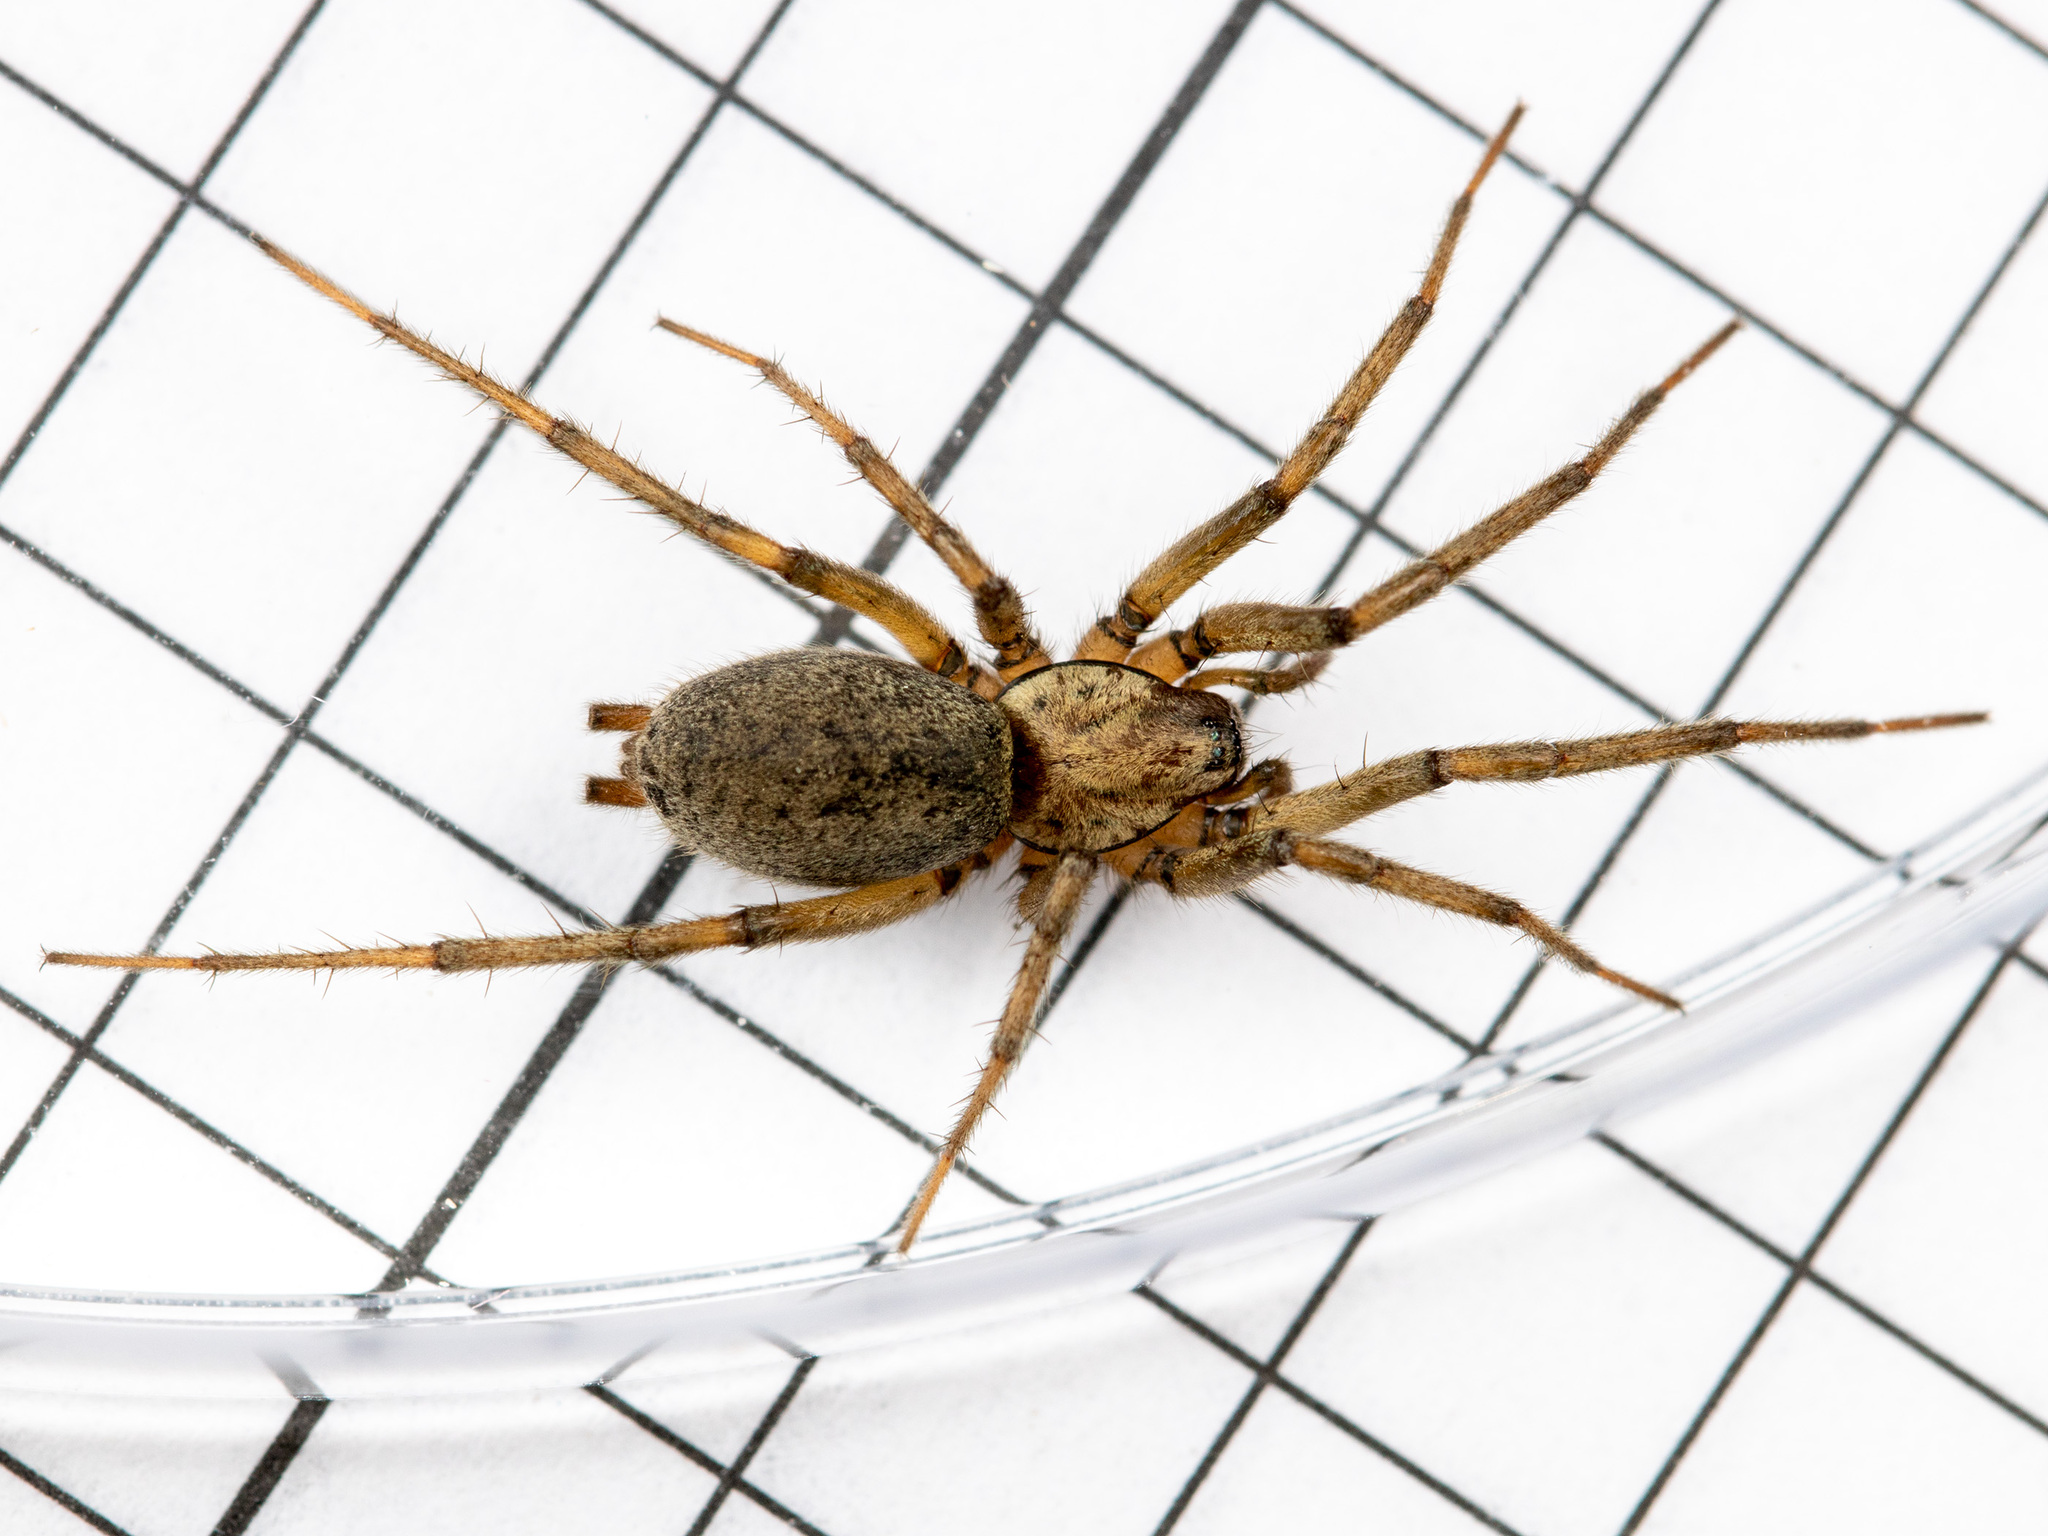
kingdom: Animalia
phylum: Arthropoda
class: Arachnida
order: Araneae
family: Gnaphosidae
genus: Nomisia
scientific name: Nomisia aussereri
